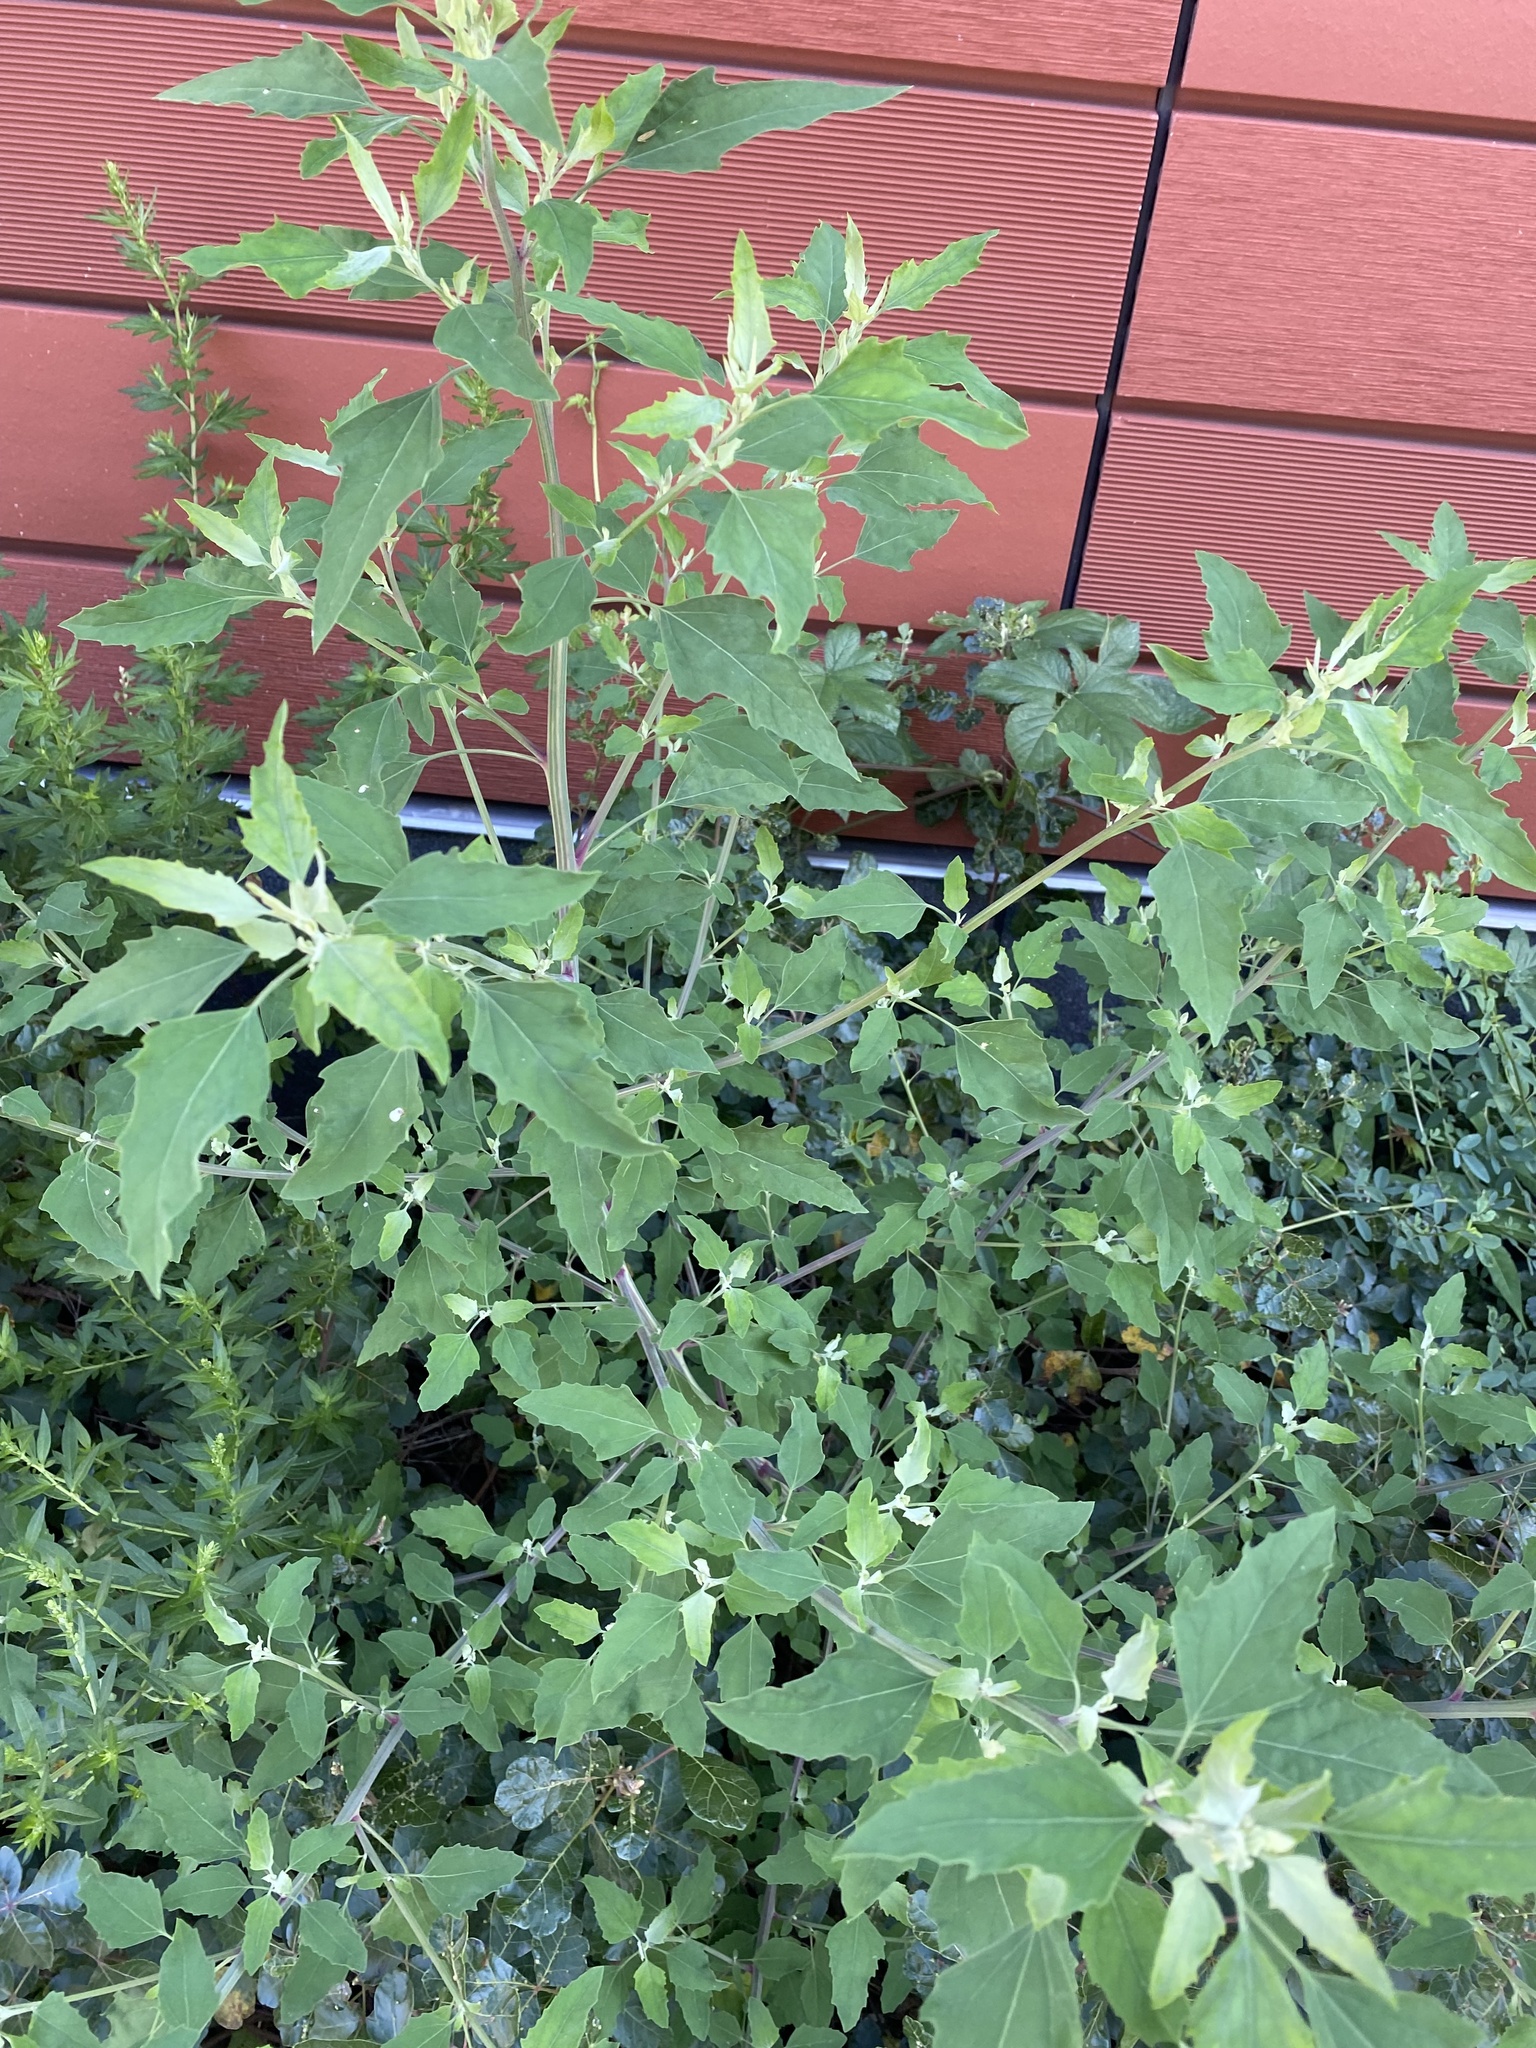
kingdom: Plantae
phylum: Tracheophyta
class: Magnoliopsida
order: Caryophyllales
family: Amaranthaceae
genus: Chenopodium
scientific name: Chenopodium album
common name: Fat-hen
